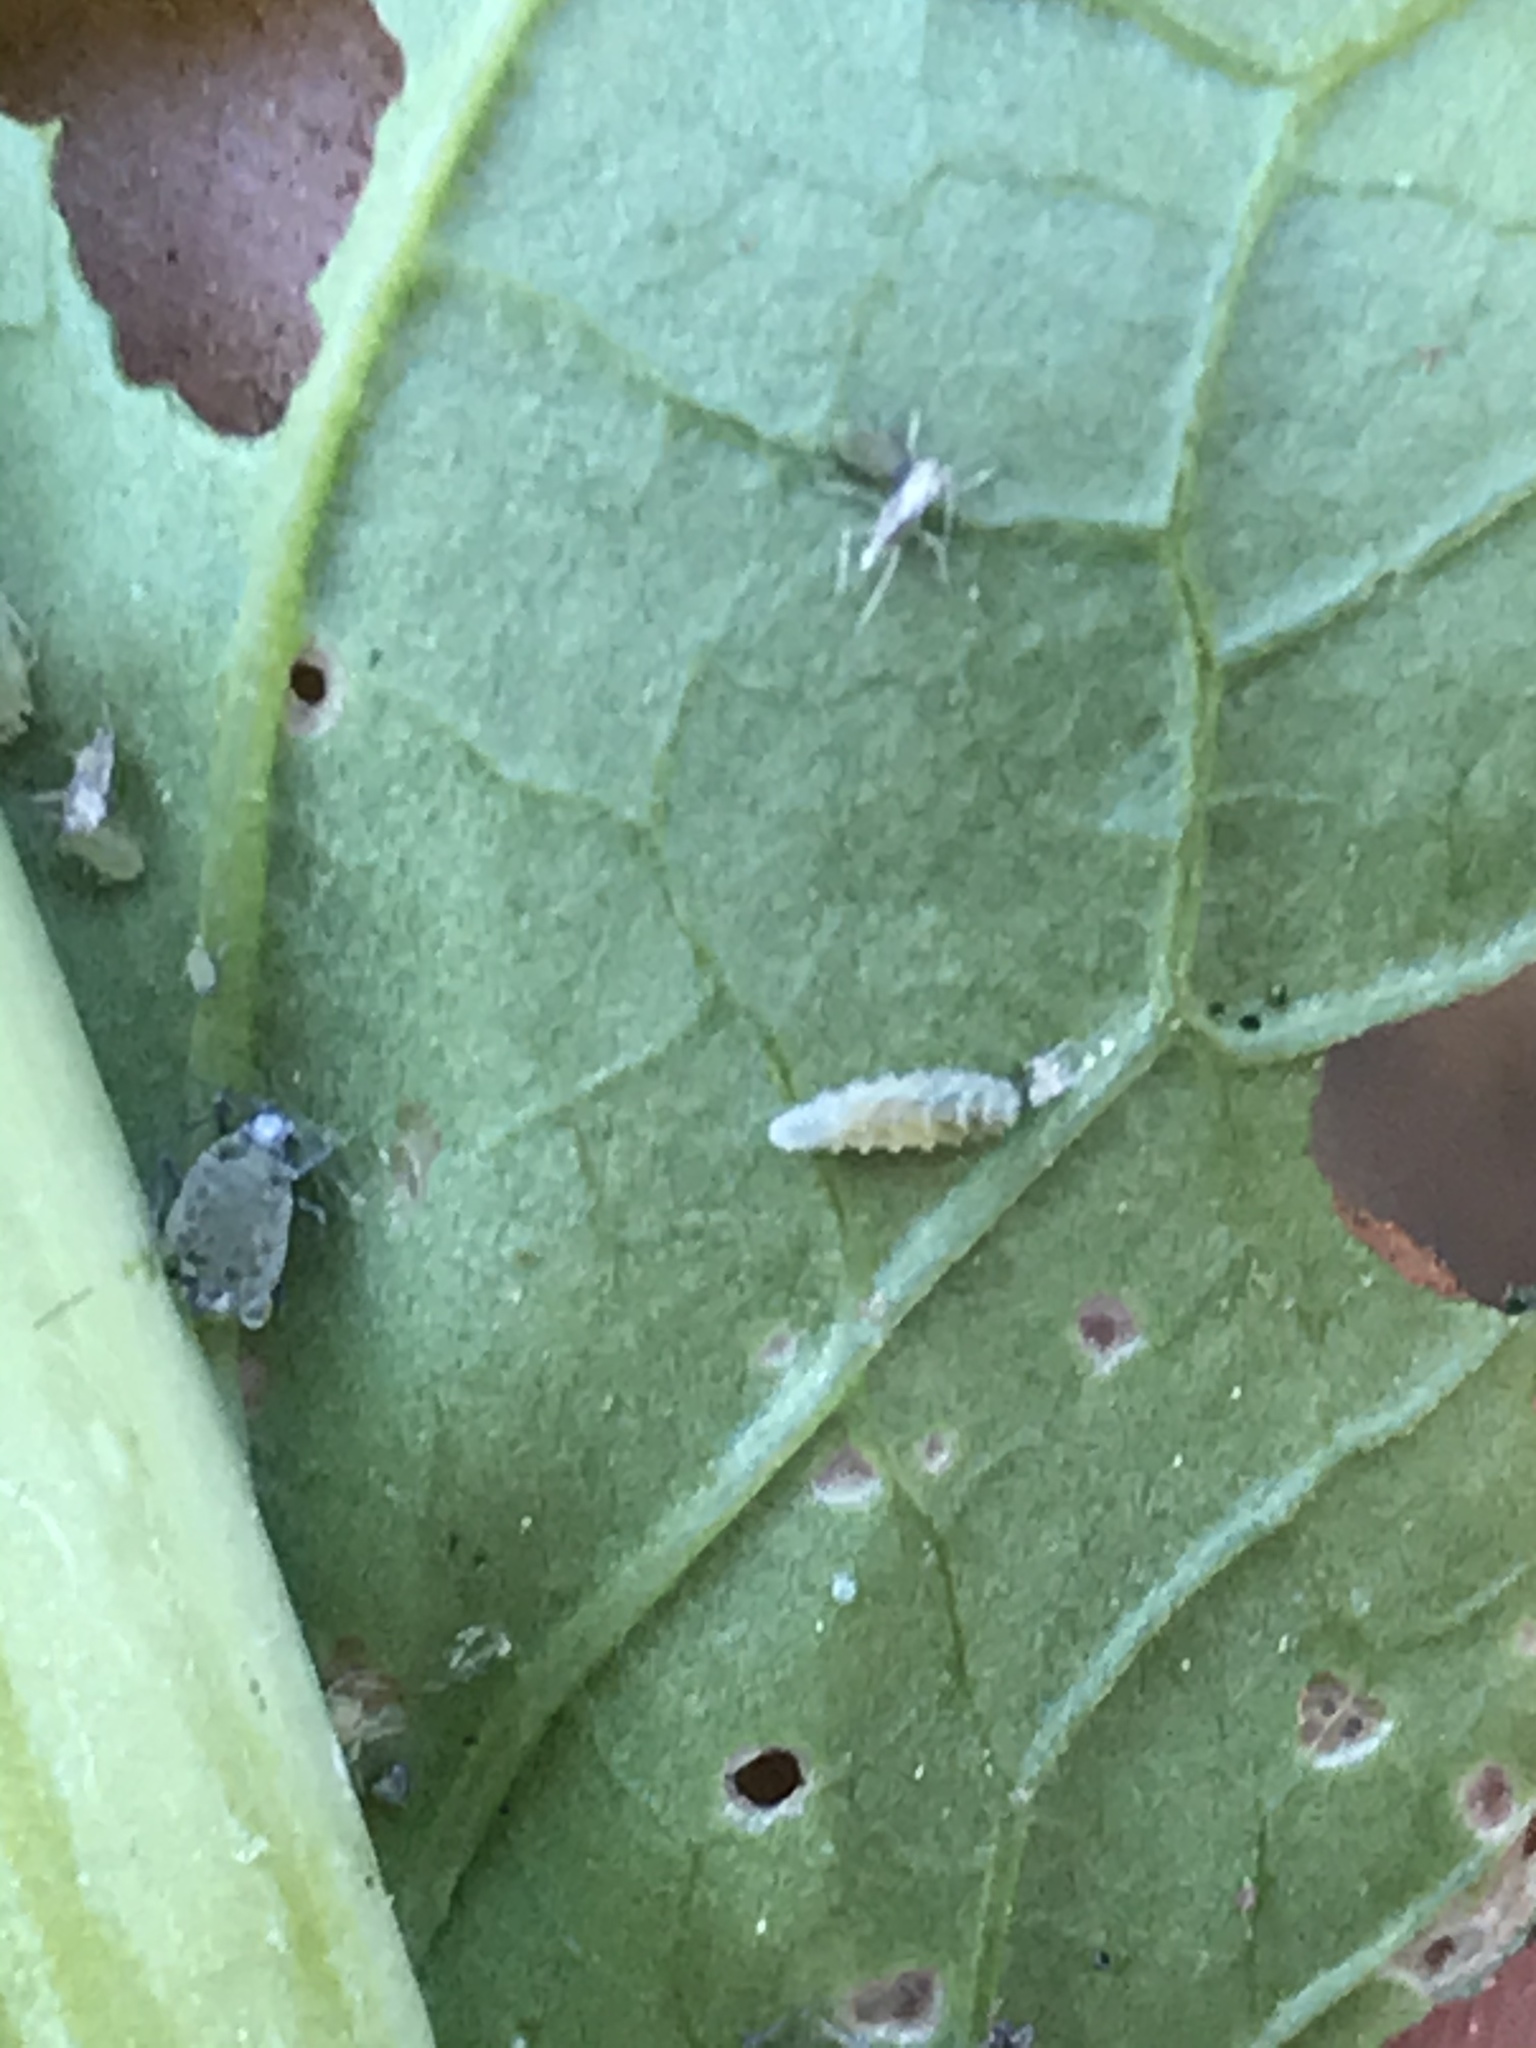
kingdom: Animalia
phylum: Arthropoda
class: Insecta
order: Diptera
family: Syrphidae
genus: Eupeodes
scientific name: Eupeodes americanus
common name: Long-tailed aphideater
